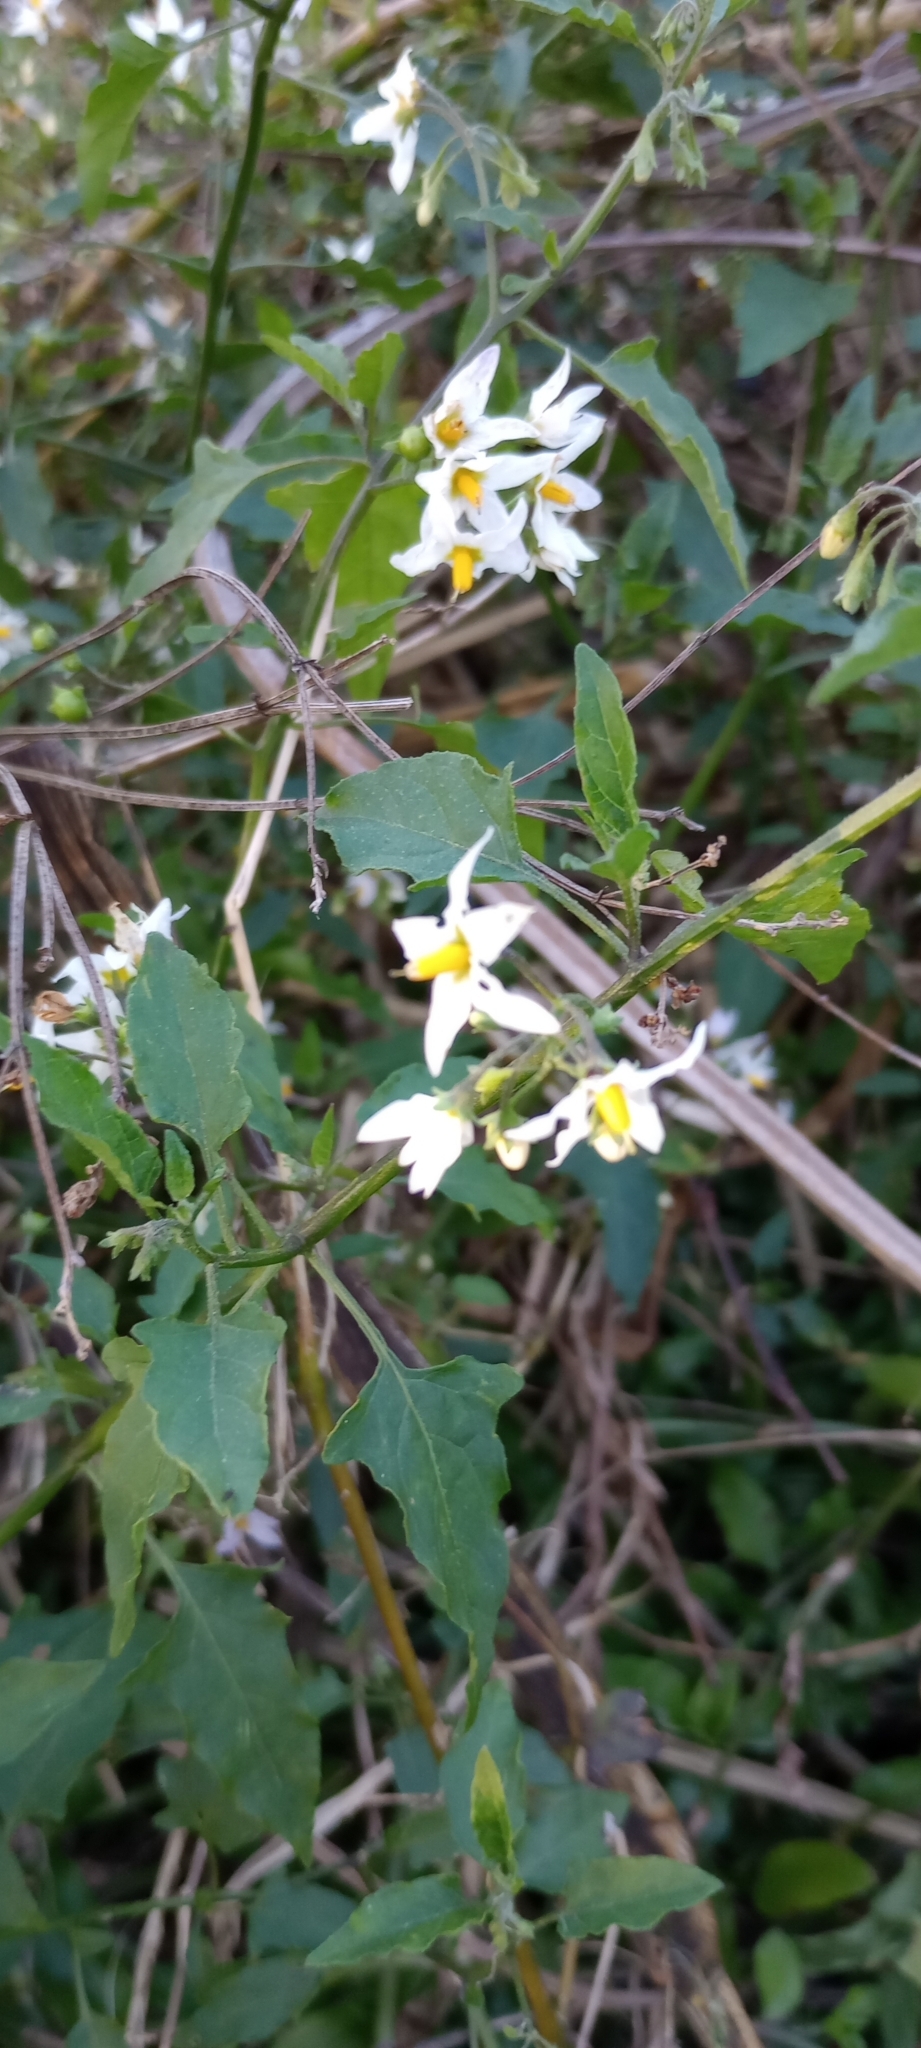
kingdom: Plantae
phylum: Tracheophyta
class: Magnoliopsida
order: Solanales
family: Solanaceae
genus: Solanum
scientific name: Solanum pilcomayense
